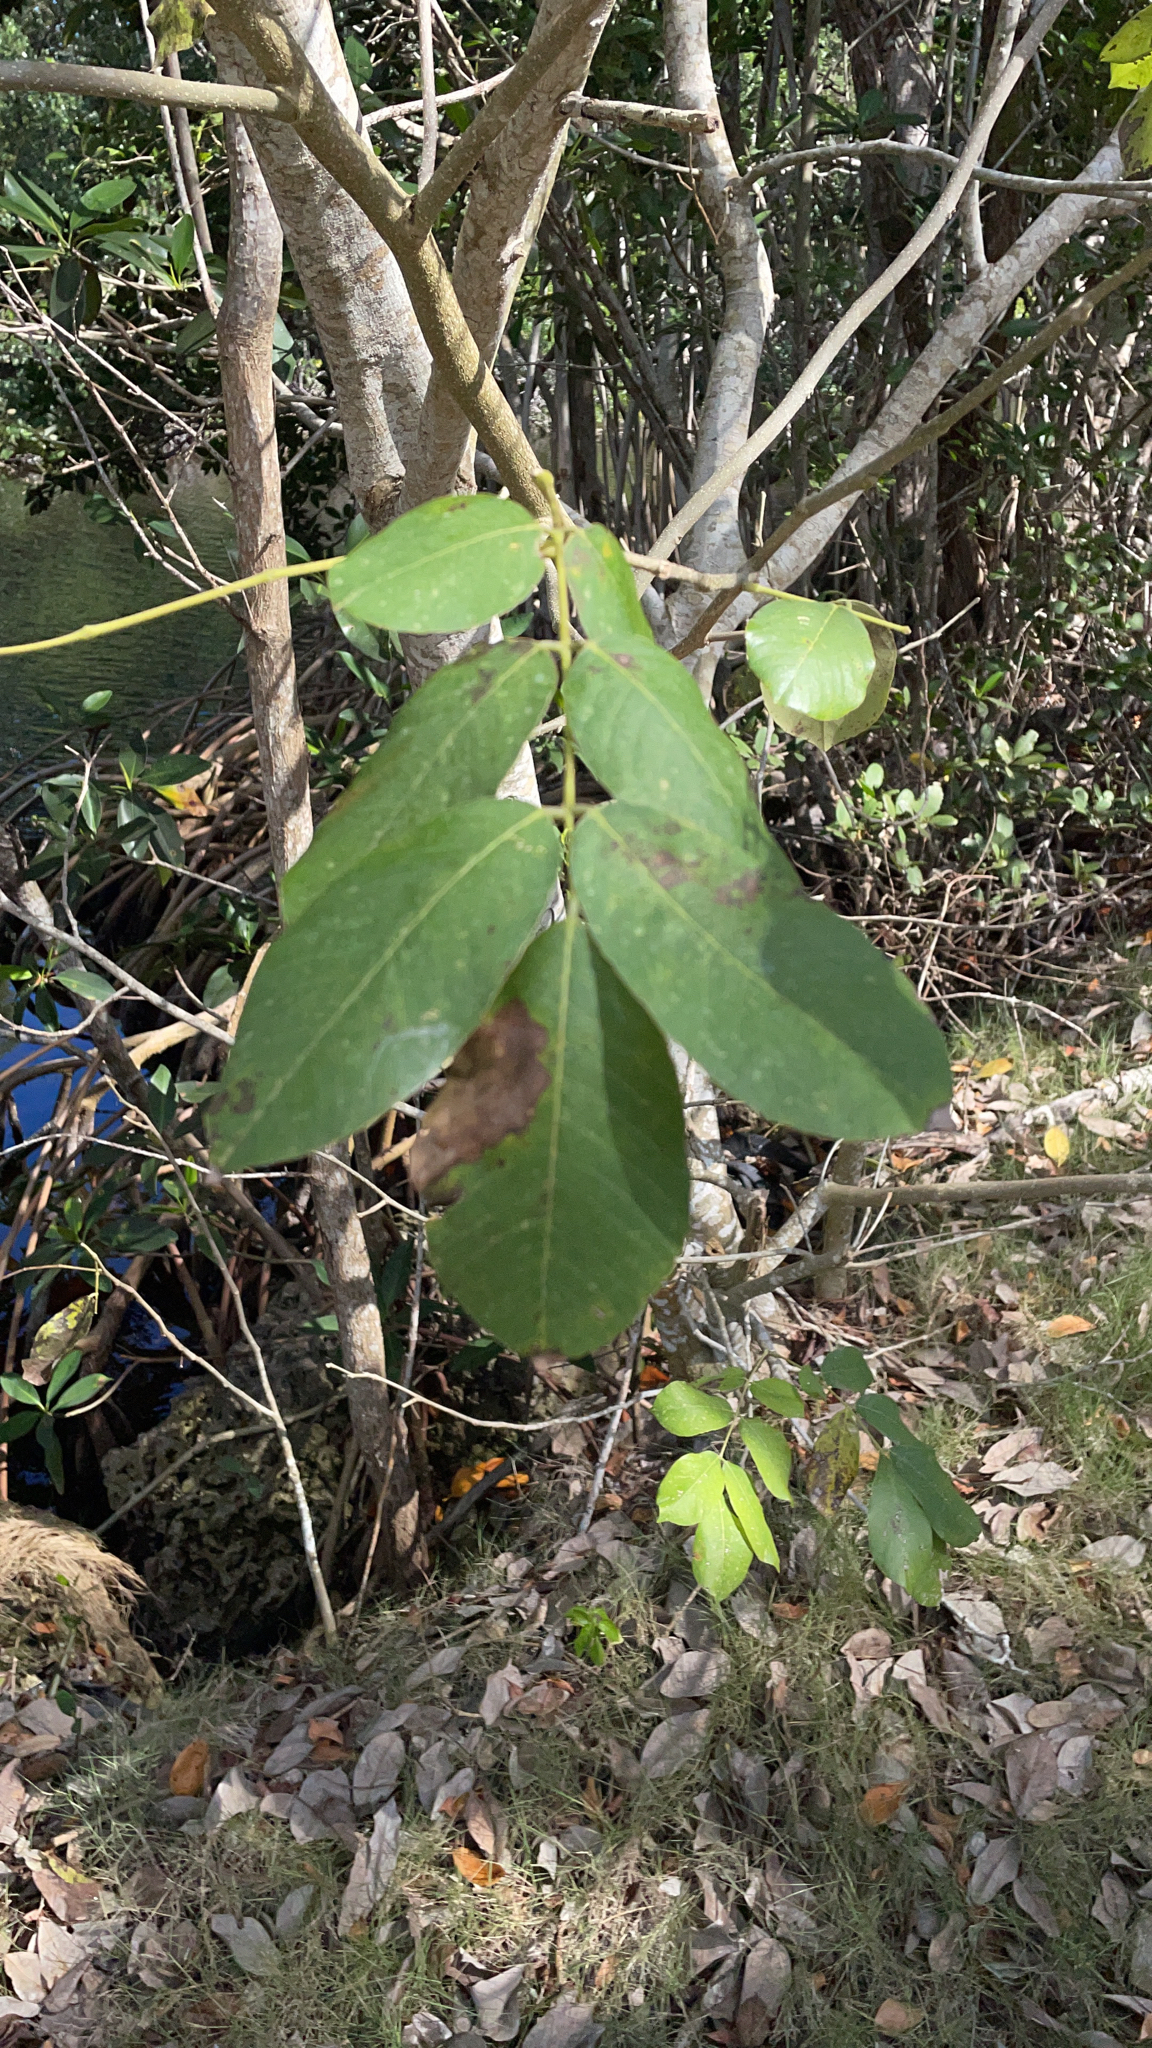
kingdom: Plantae
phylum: Tracheophyta
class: Magnoliopsida
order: Fabales
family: Fabaceae
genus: Piscidia
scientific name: Piscidia piscipula
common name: Florida fishpoison tree
